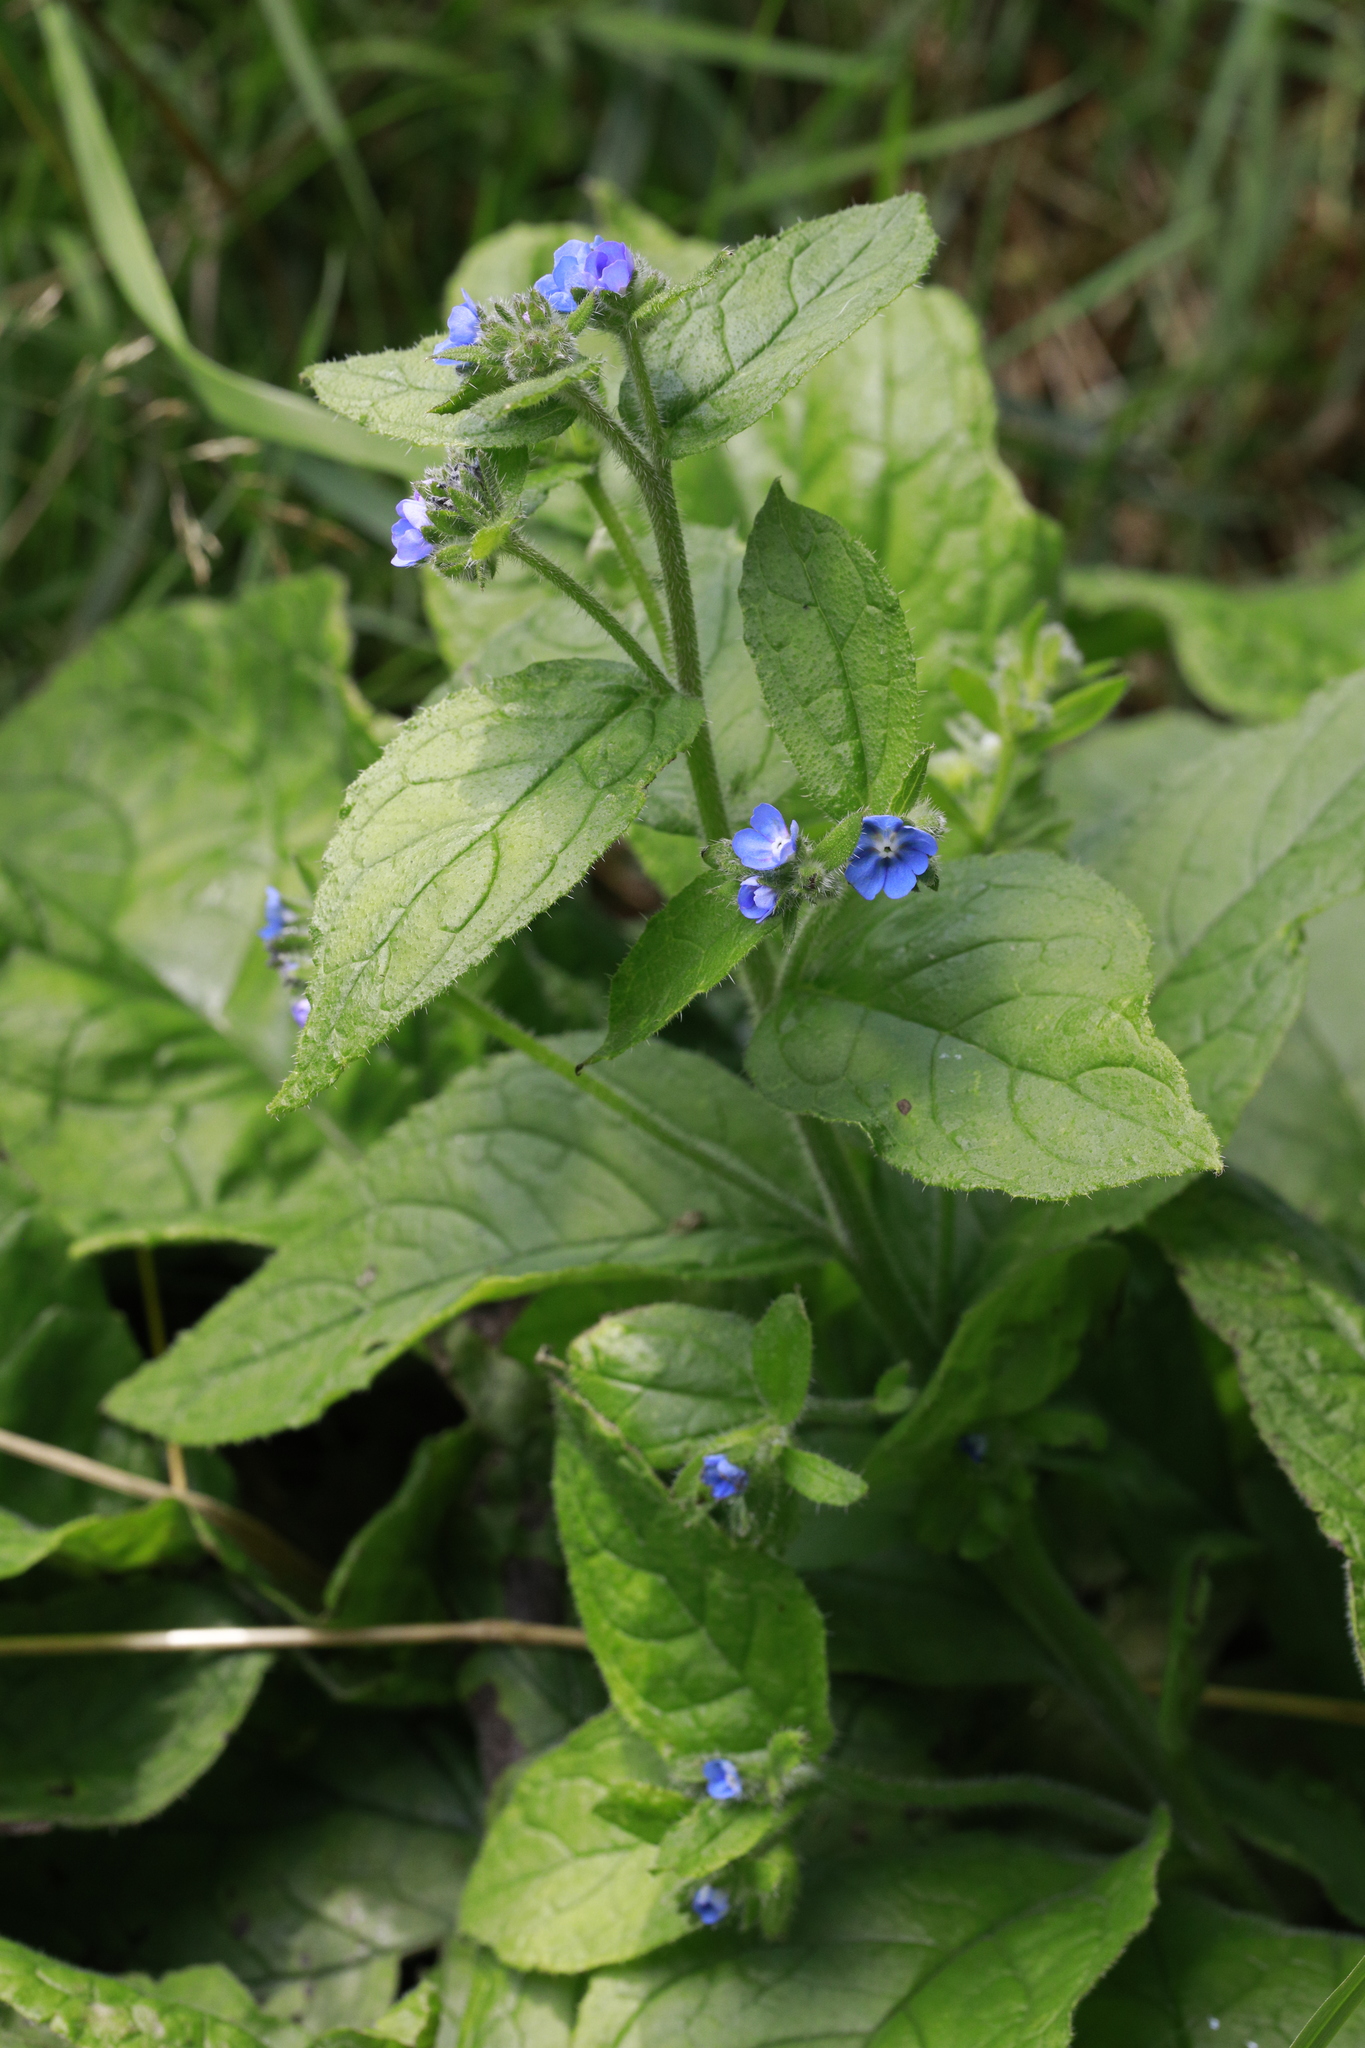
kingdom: Plantae
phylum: Tracheophyta
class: Magnoliopsida
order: Boraginales
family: Boraginaceae
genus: Pentaglottis
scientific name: Pentaglottis sempervirens
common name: Green alkanet
